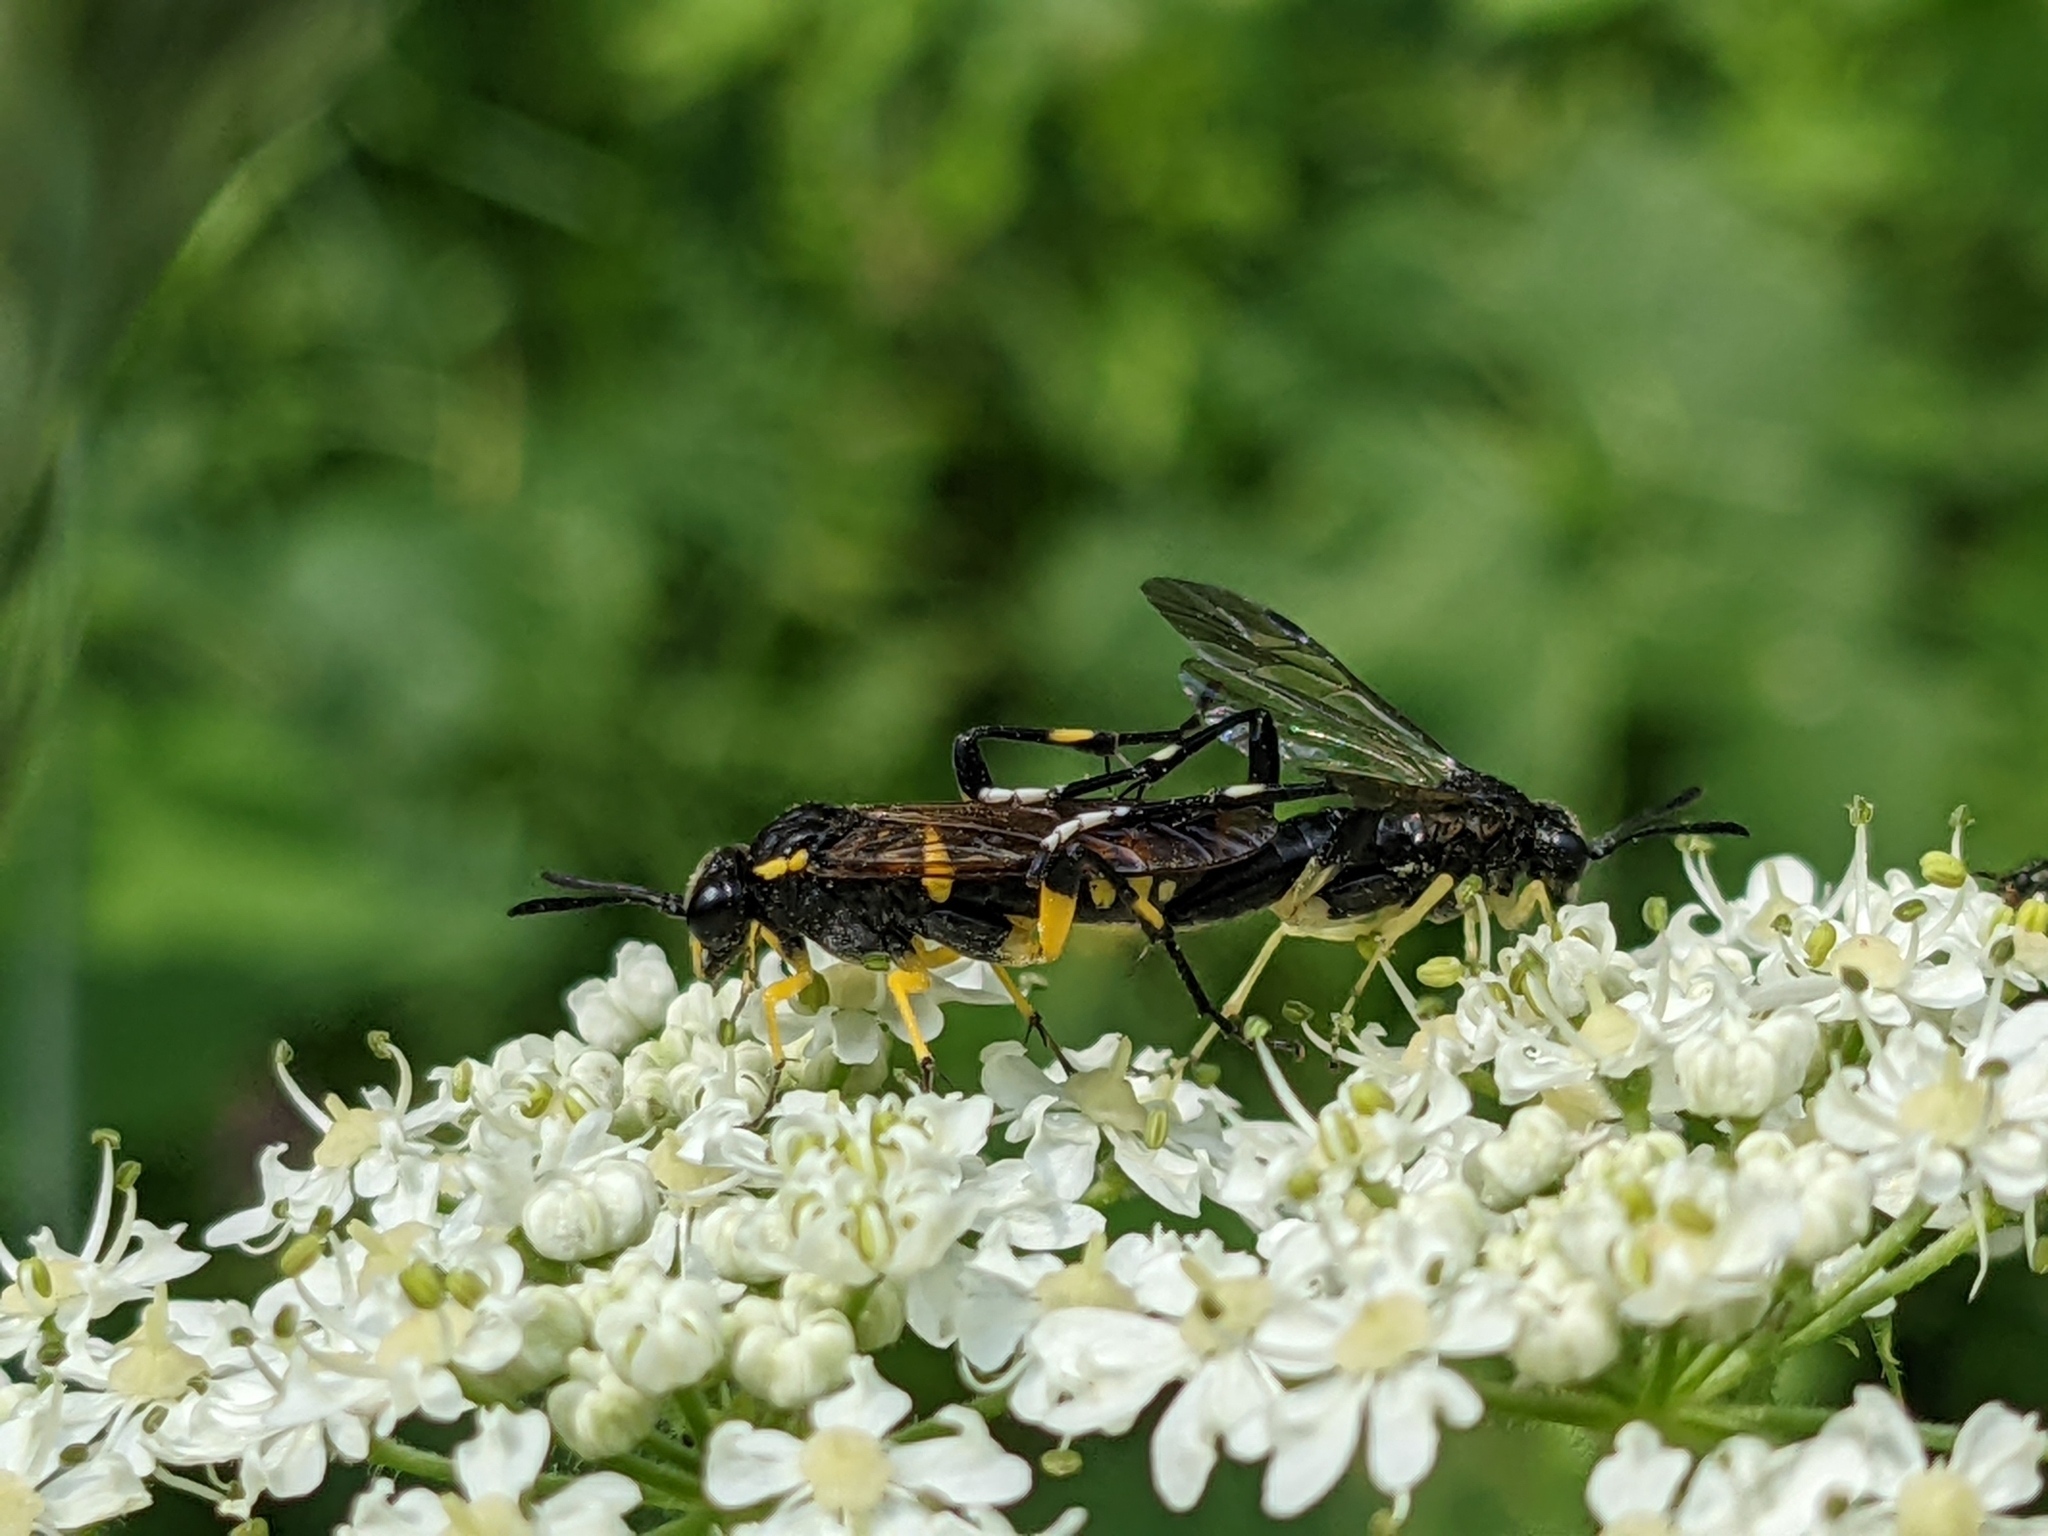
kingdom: Animalia
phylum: Arthropoda
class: Insecta
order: Hymenoptera
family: Tenthredinidae
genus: Macrophya
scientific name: Macrophya montana
